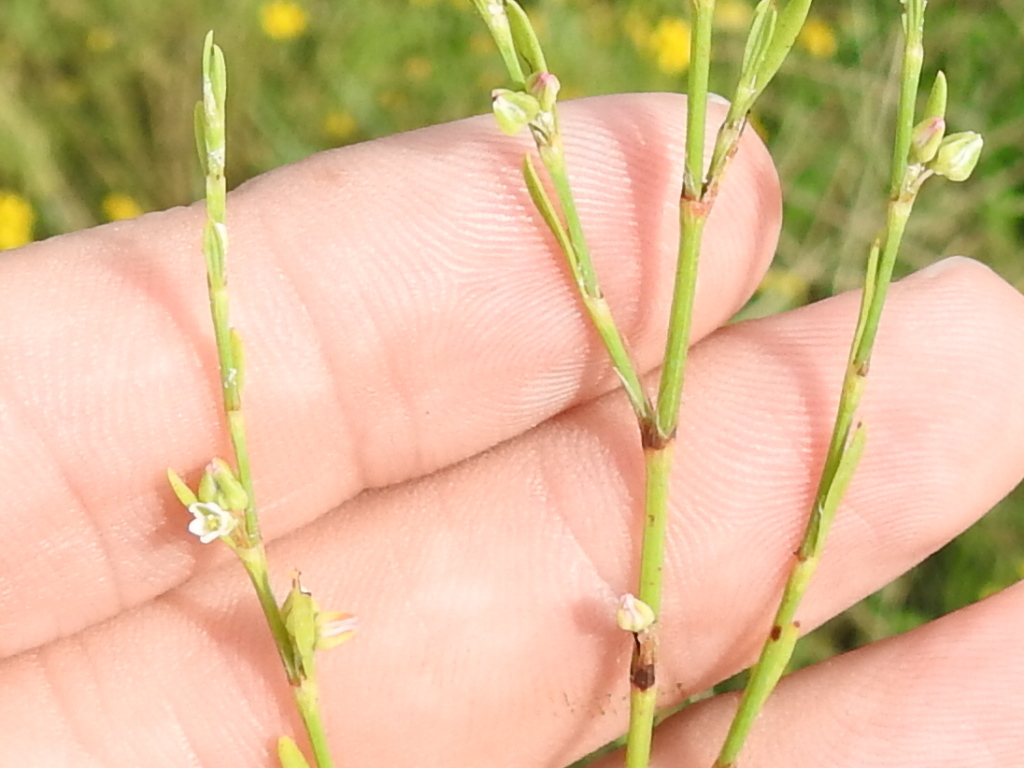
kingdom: Plantae
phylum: Tracheophyta
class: Magnoliopsida
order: Caryophyllales
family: Polygonaceae
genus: Polygonum
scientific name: Polygonum ramosissimum
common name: Bushy knotweed
